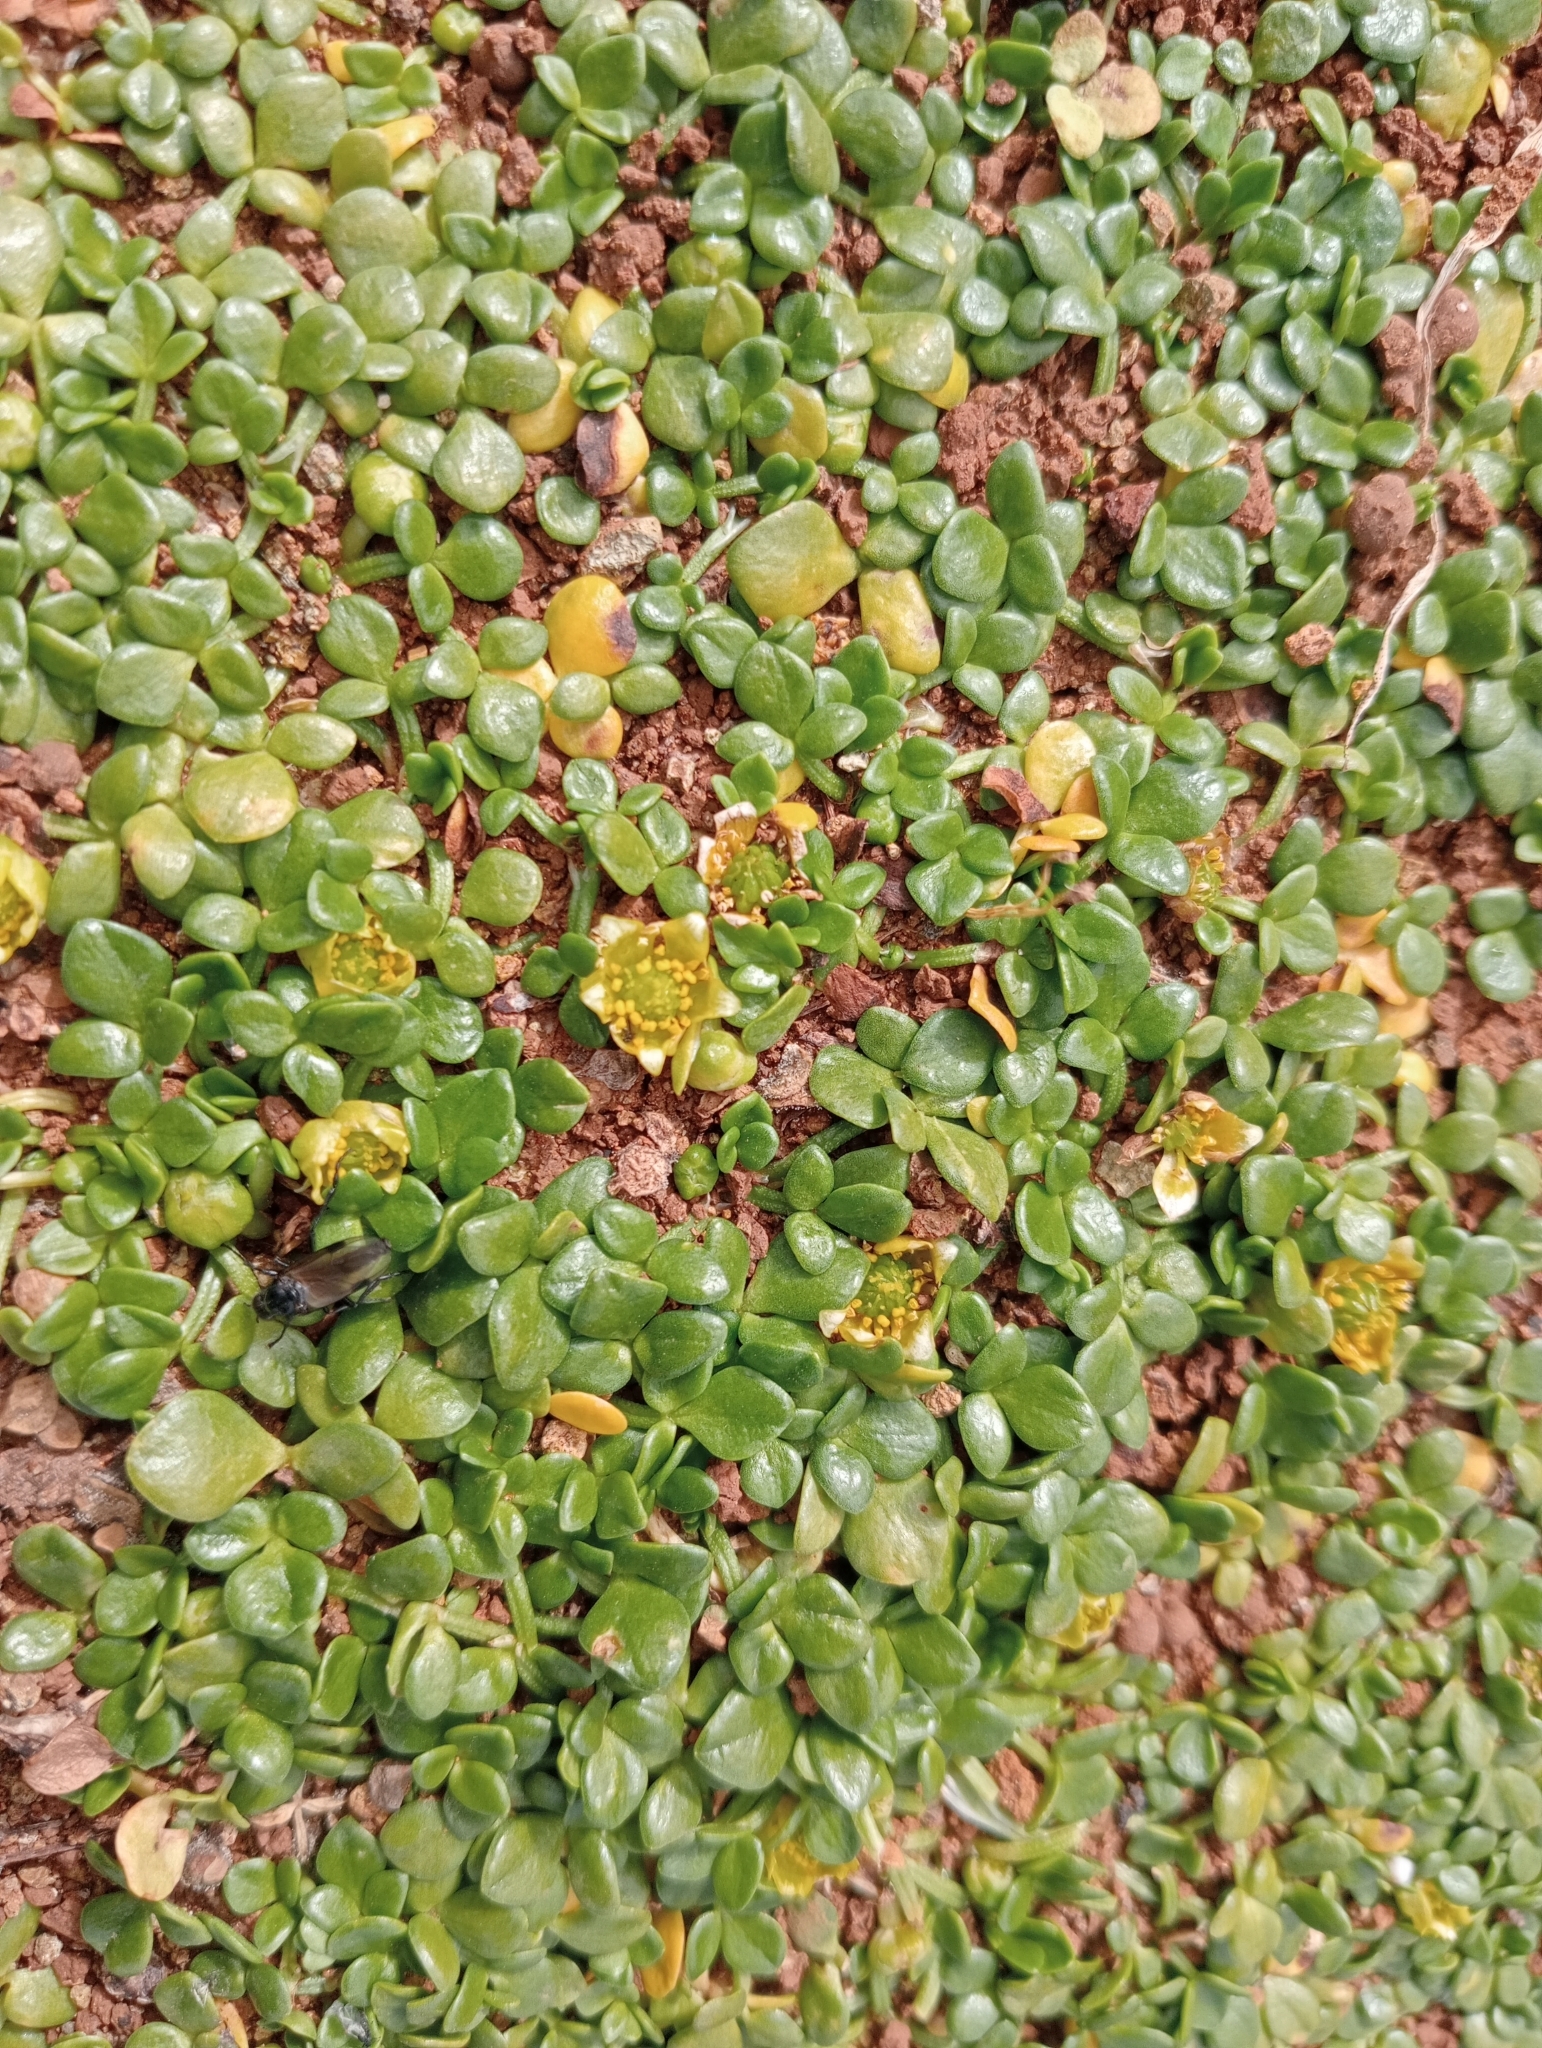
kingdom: Plantae
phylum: Tracheophyta
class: Magnoliopsida
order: Ranunculales
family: Ranunculaceae
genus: Ranunculus
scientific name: Ranunculus acaulis
